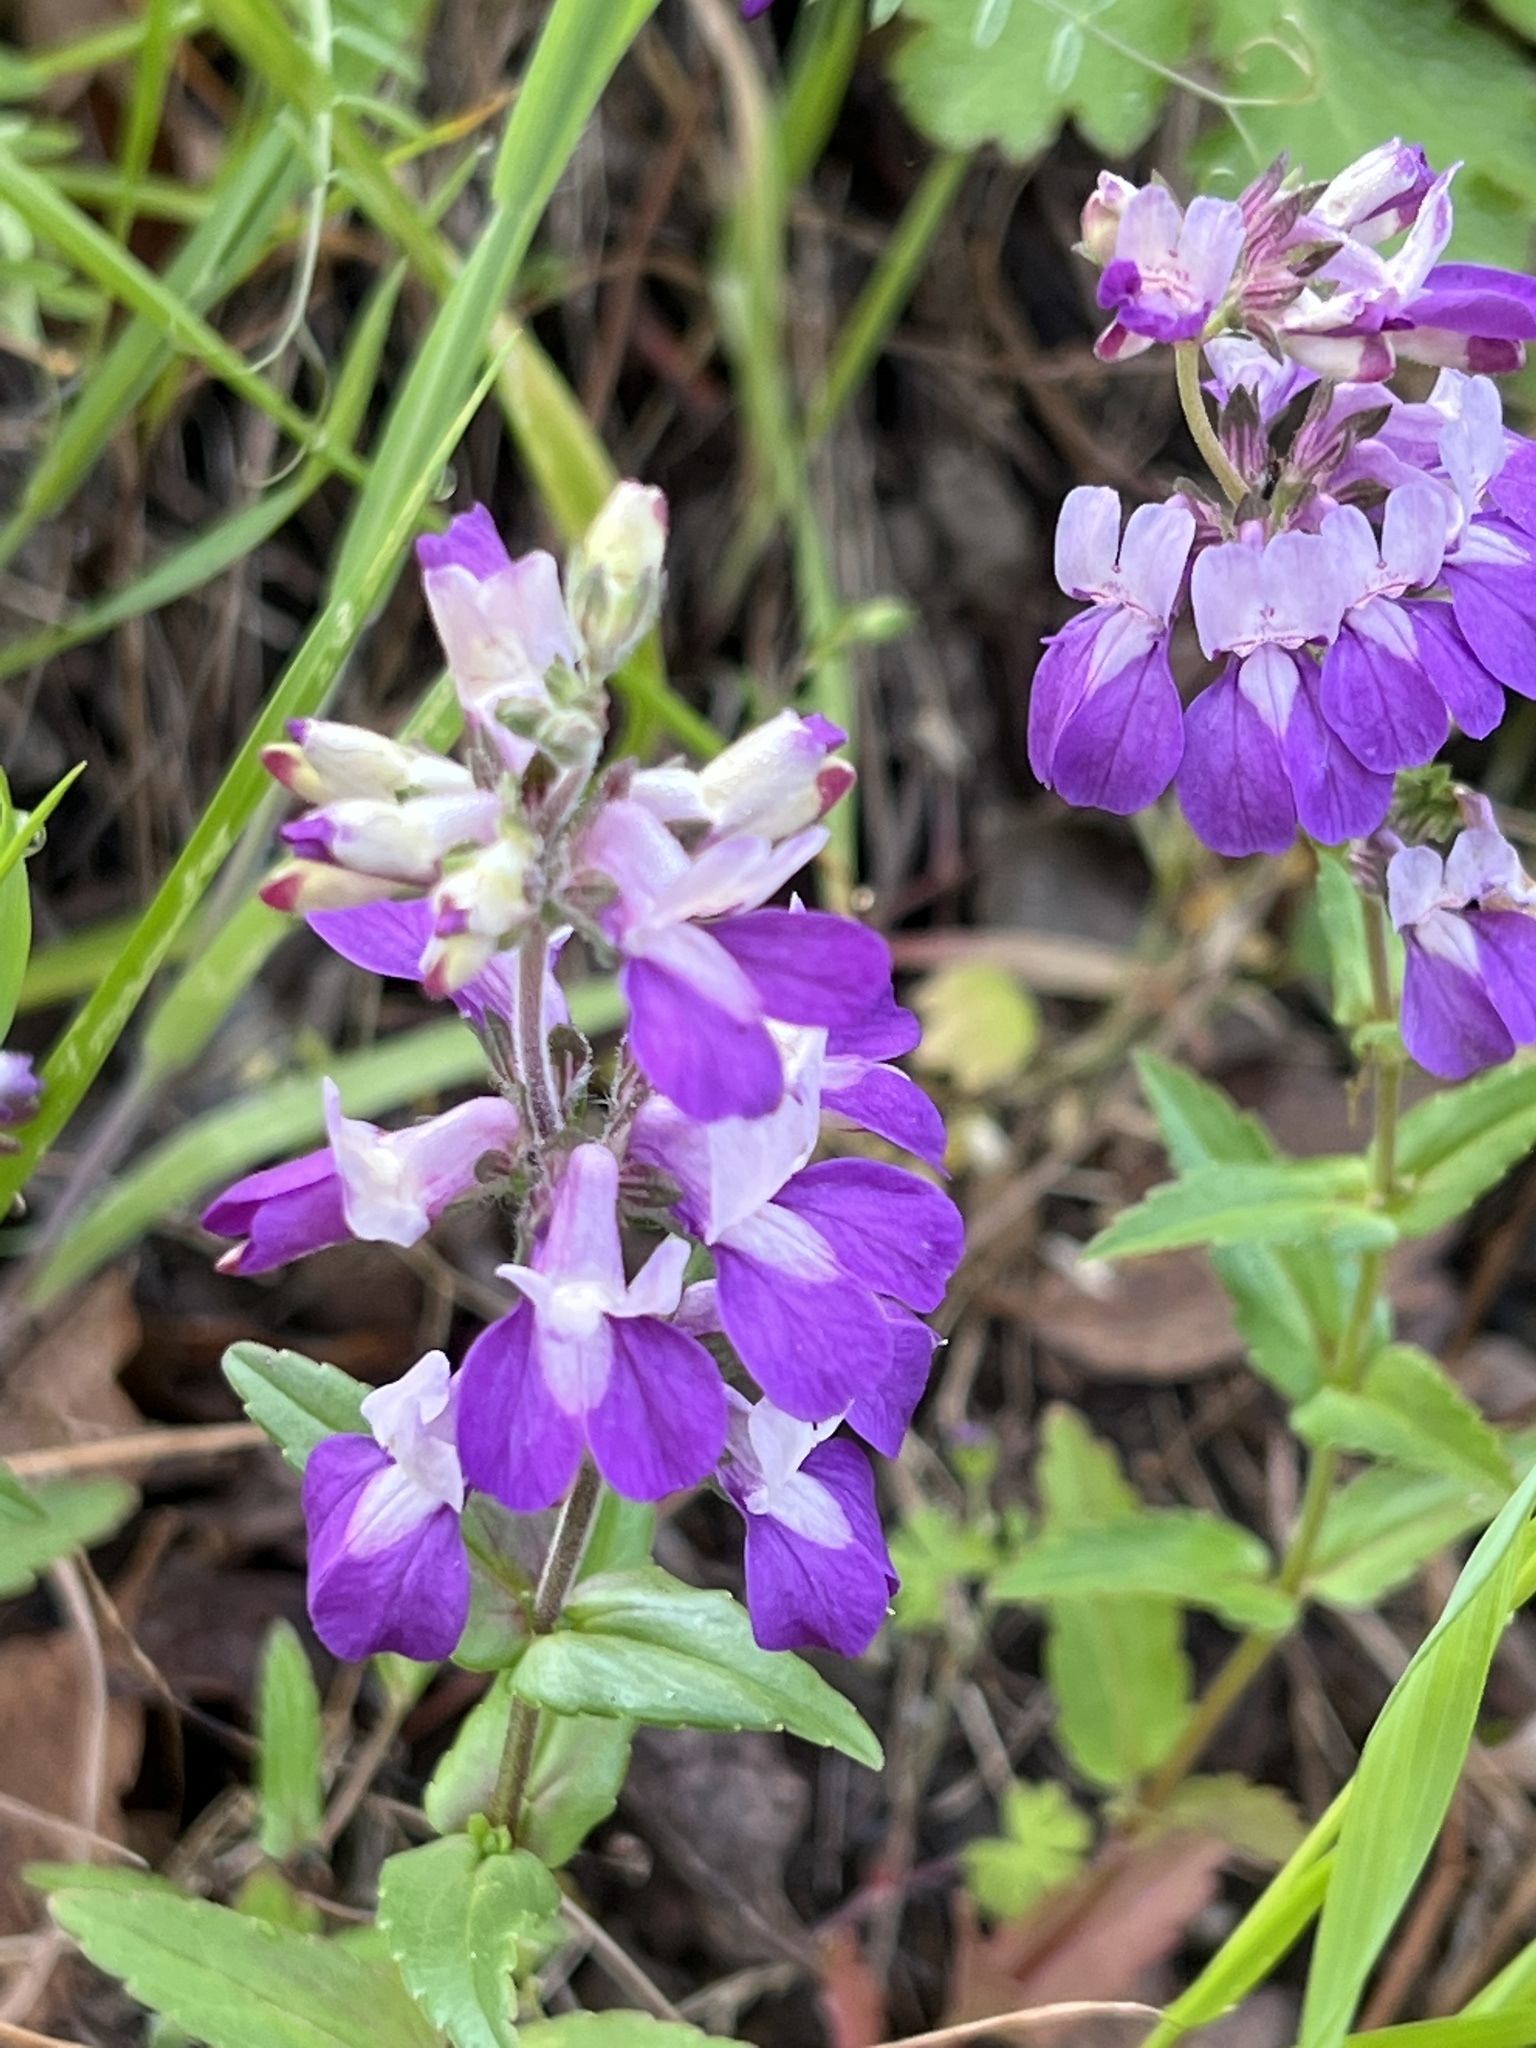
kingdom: Plantae
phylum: Tracheophyta
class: Magnoliopsida
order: Lamiales
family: Plantaginaceae
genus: Collinsia
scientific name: Collinsia heterophylla
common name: Chinese-houses
